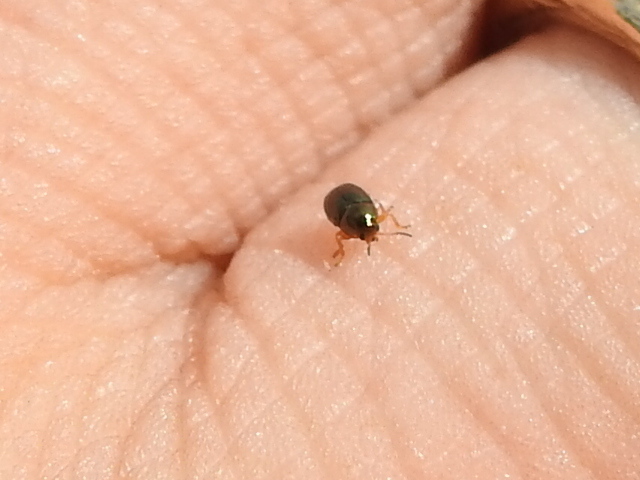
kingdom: Animalia
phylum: Arthropoda
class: Insecta
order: Coleoptera
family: Chrysomelidae
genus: Diachus
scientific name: Diachus auratus
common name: Bronze leaf beetle
